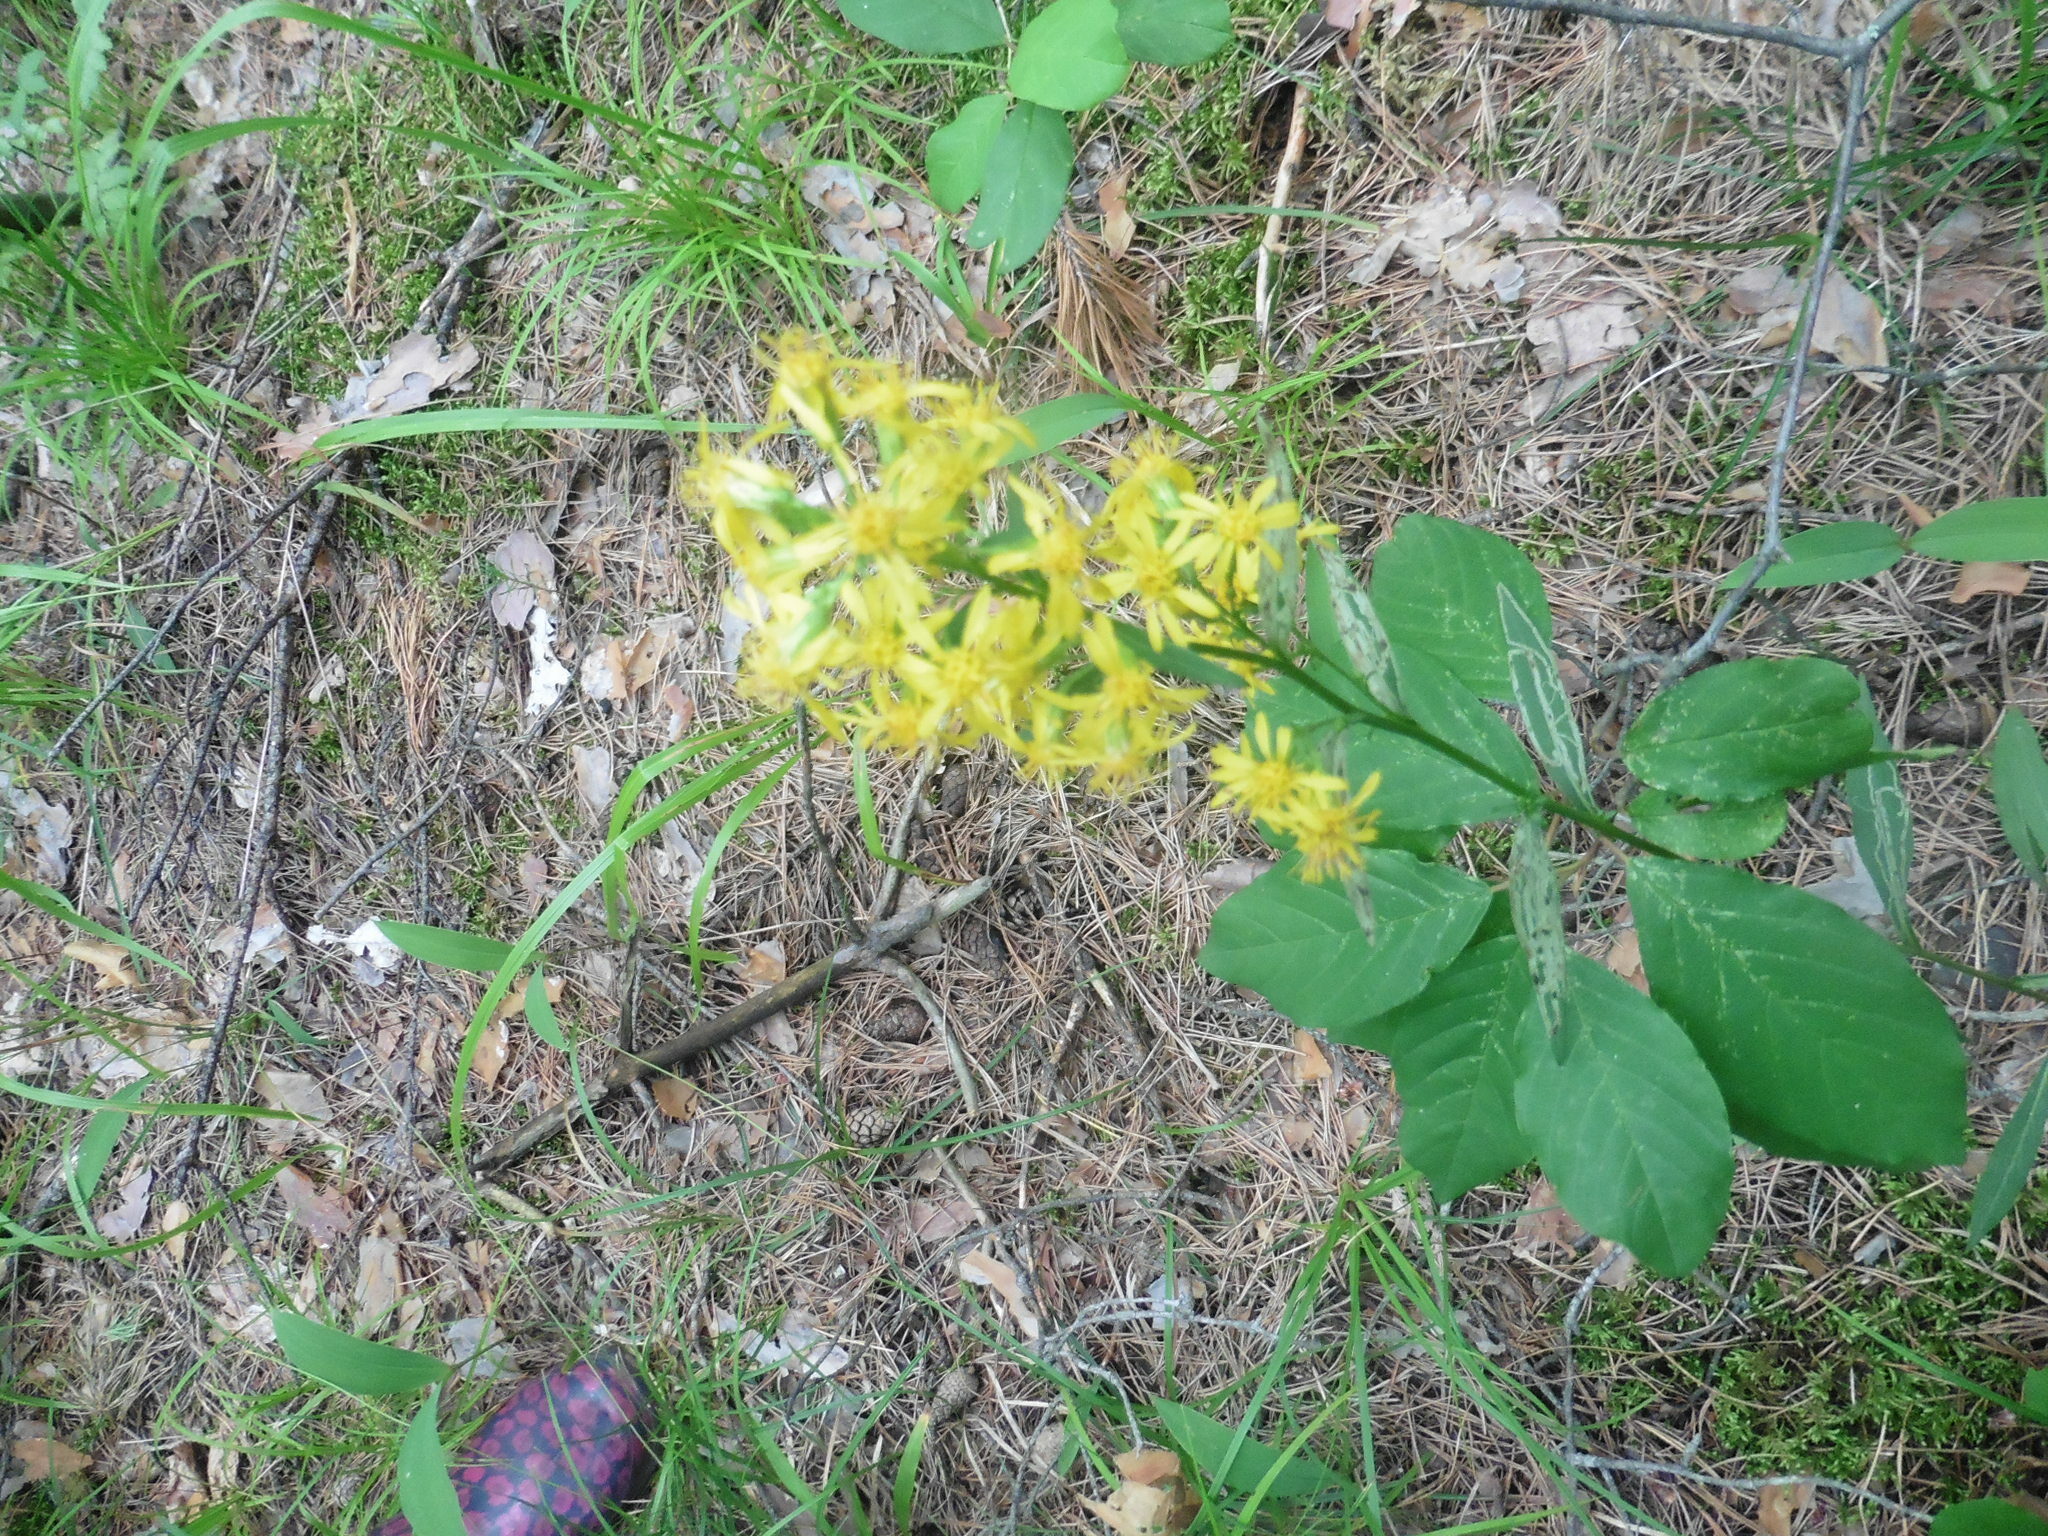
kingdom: Plantae
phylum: Tracheophyta
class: Magnoliopsida
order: Asterales
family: Asteraceae
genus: Solidago
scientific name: Solidago virgaurea
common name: Goldenrod
